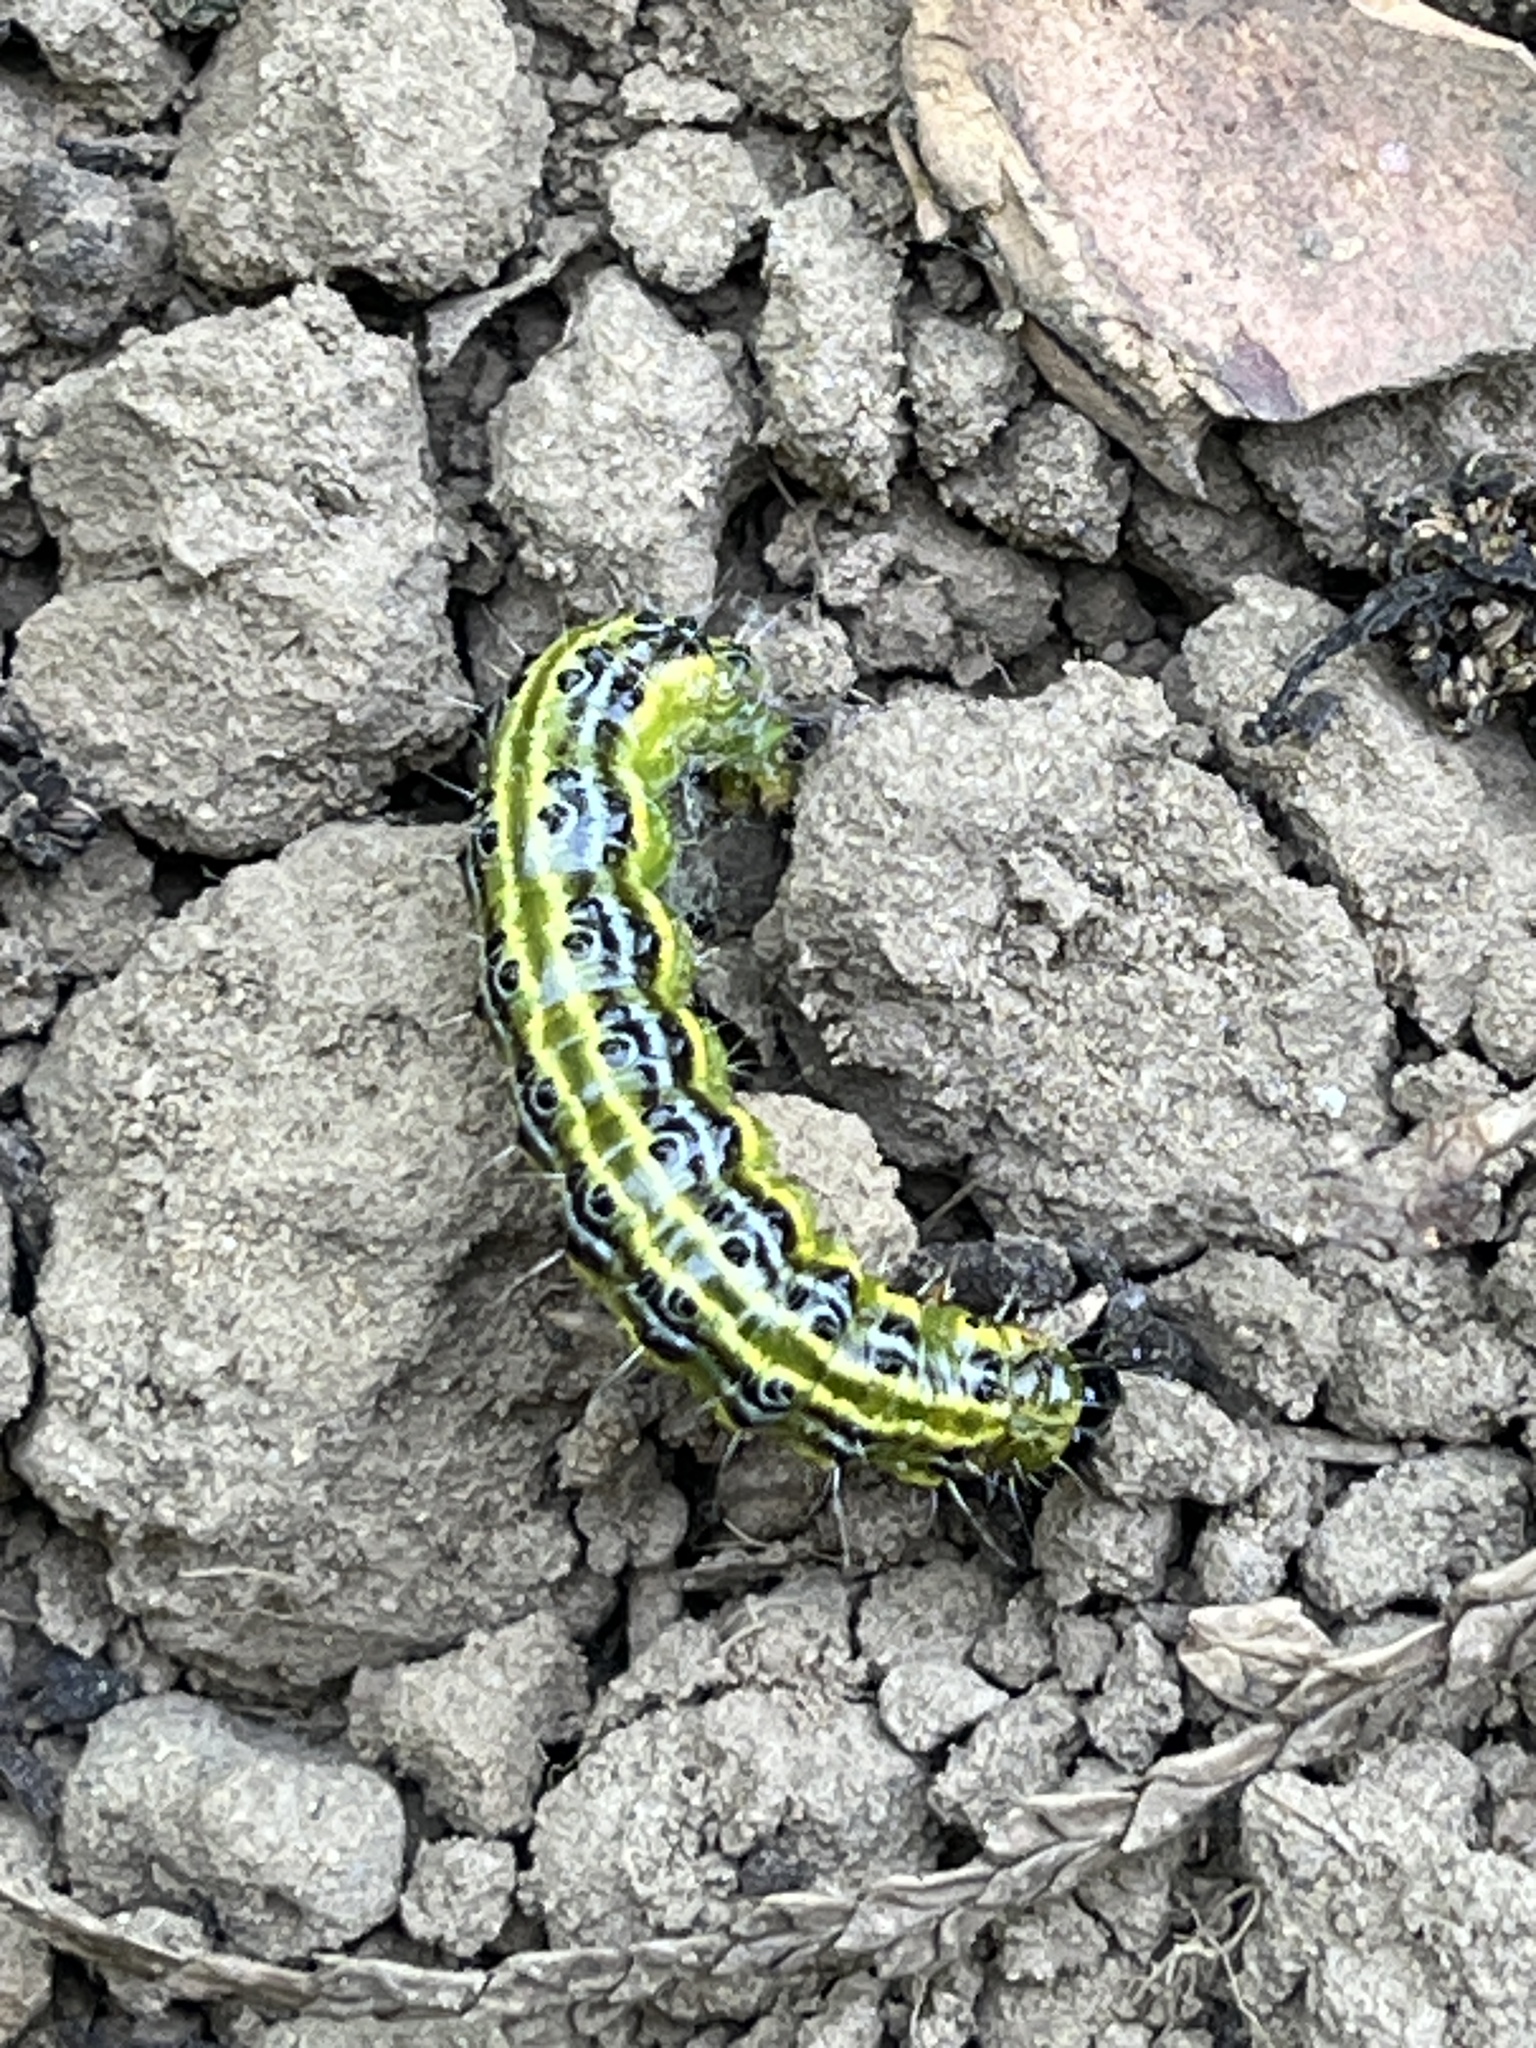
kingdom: Animalia
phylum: Arthropoda
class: Insecta
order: Lepidoptera
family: Crambidae
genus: Cydalima
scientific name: Cydalima perspectalis
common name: Box tree moth
